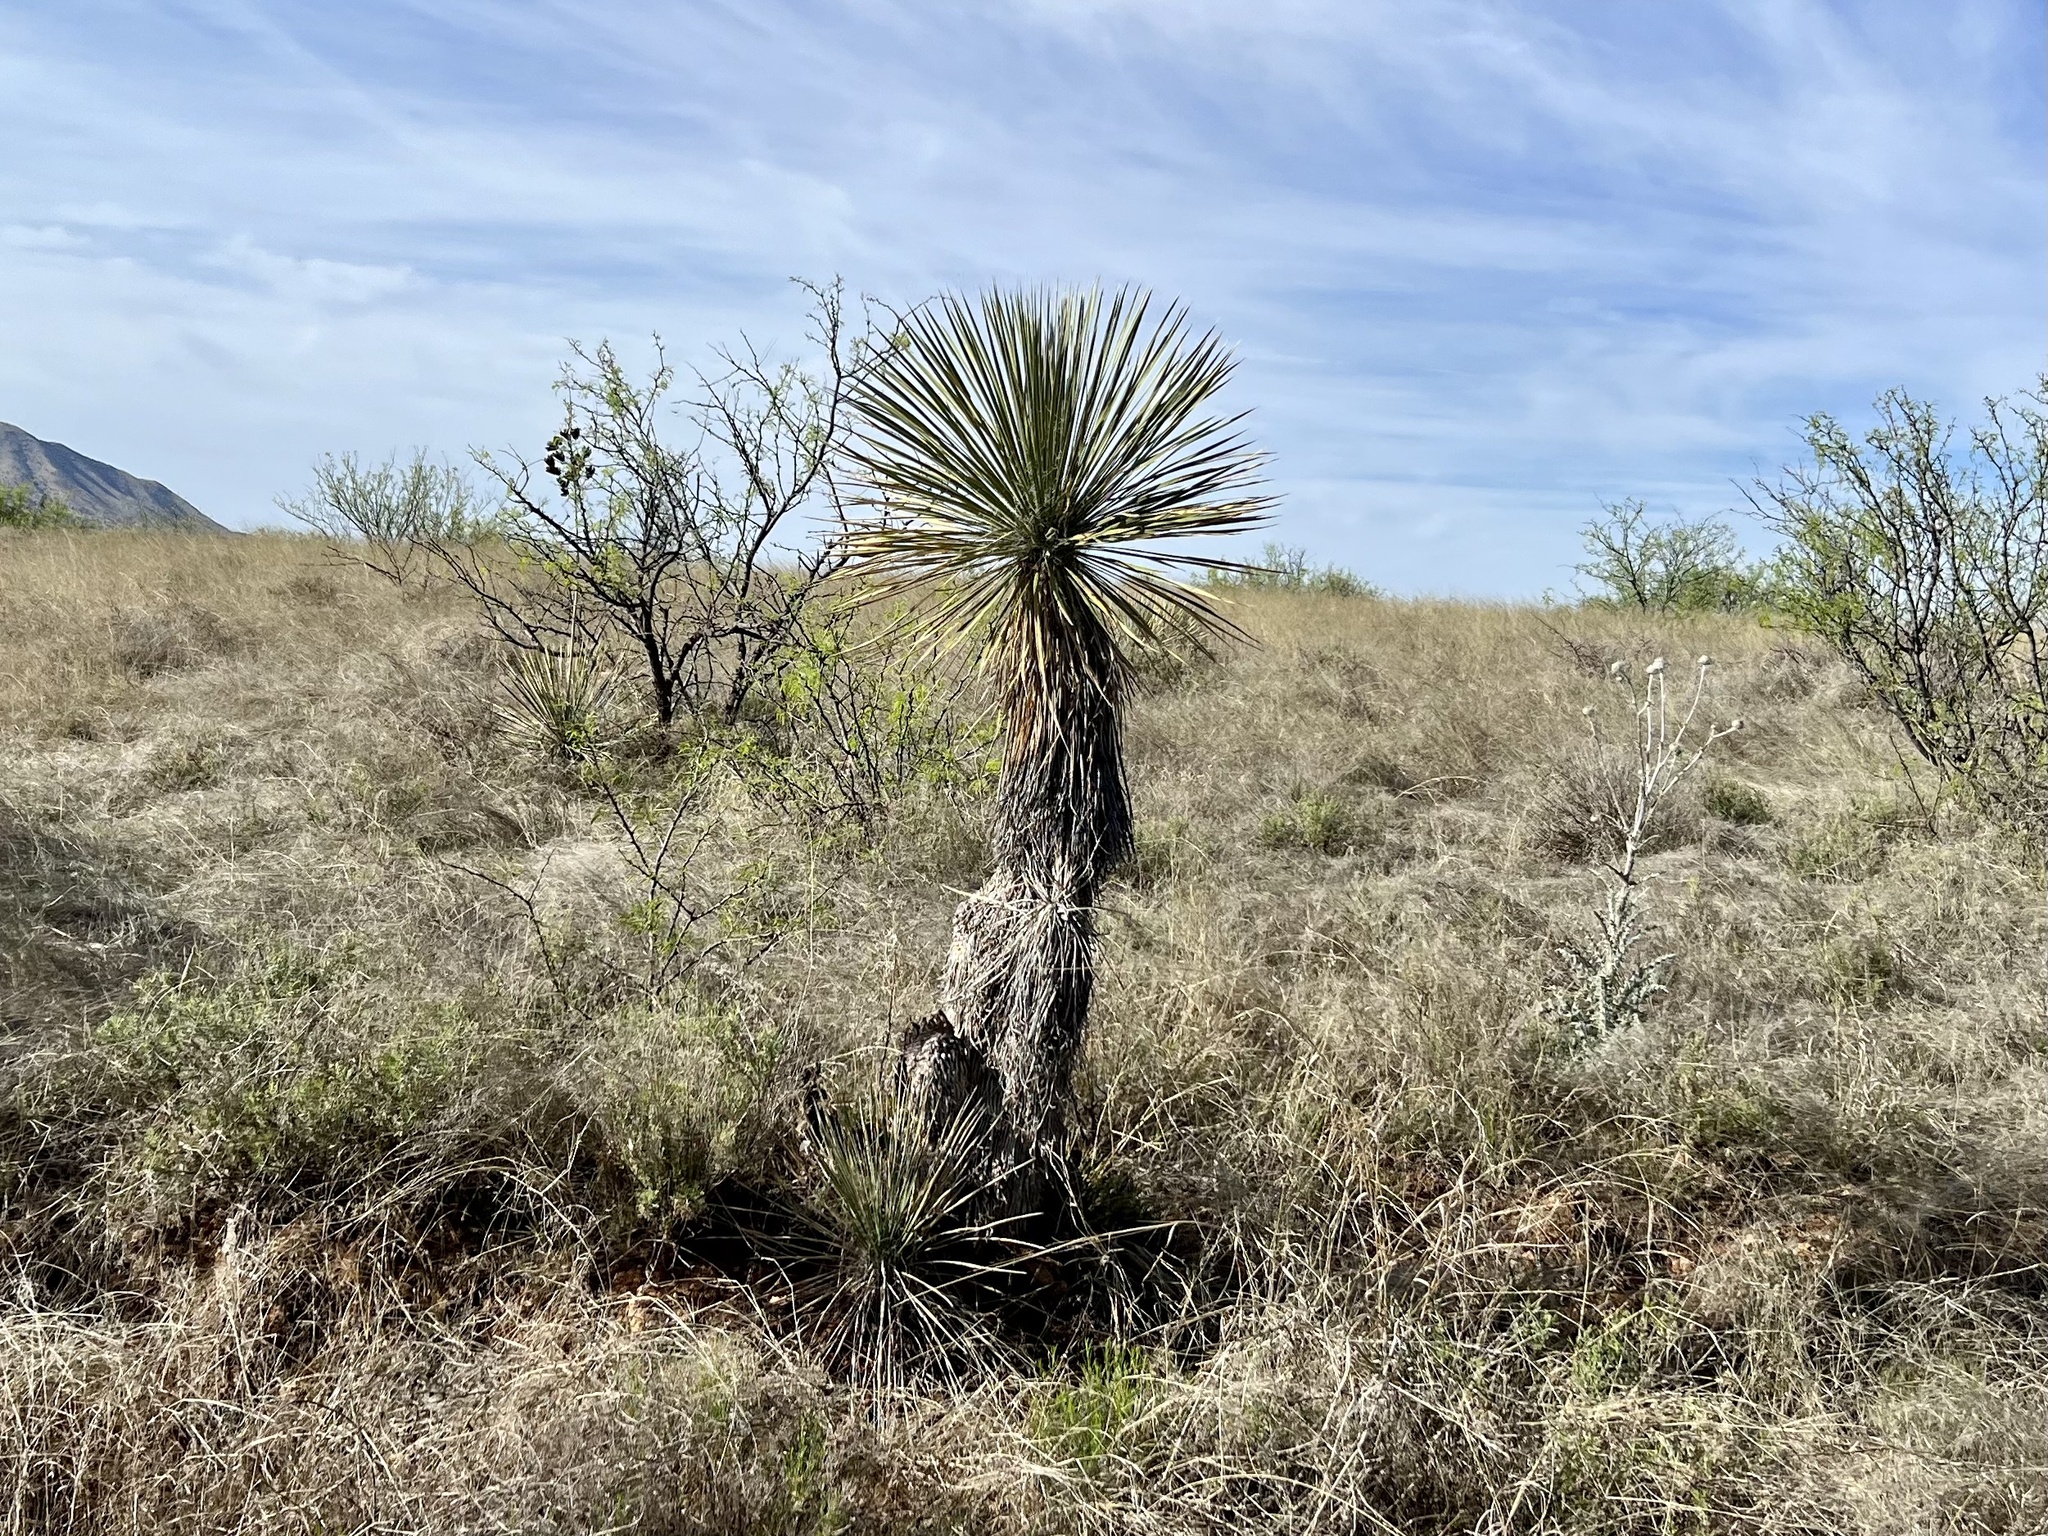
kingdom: Plantae
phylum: Tracheophyta
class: Liliopsida
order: Asparagales
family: Asparagaceae
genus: Yucca
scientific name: Yucca elata
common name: Palmella
